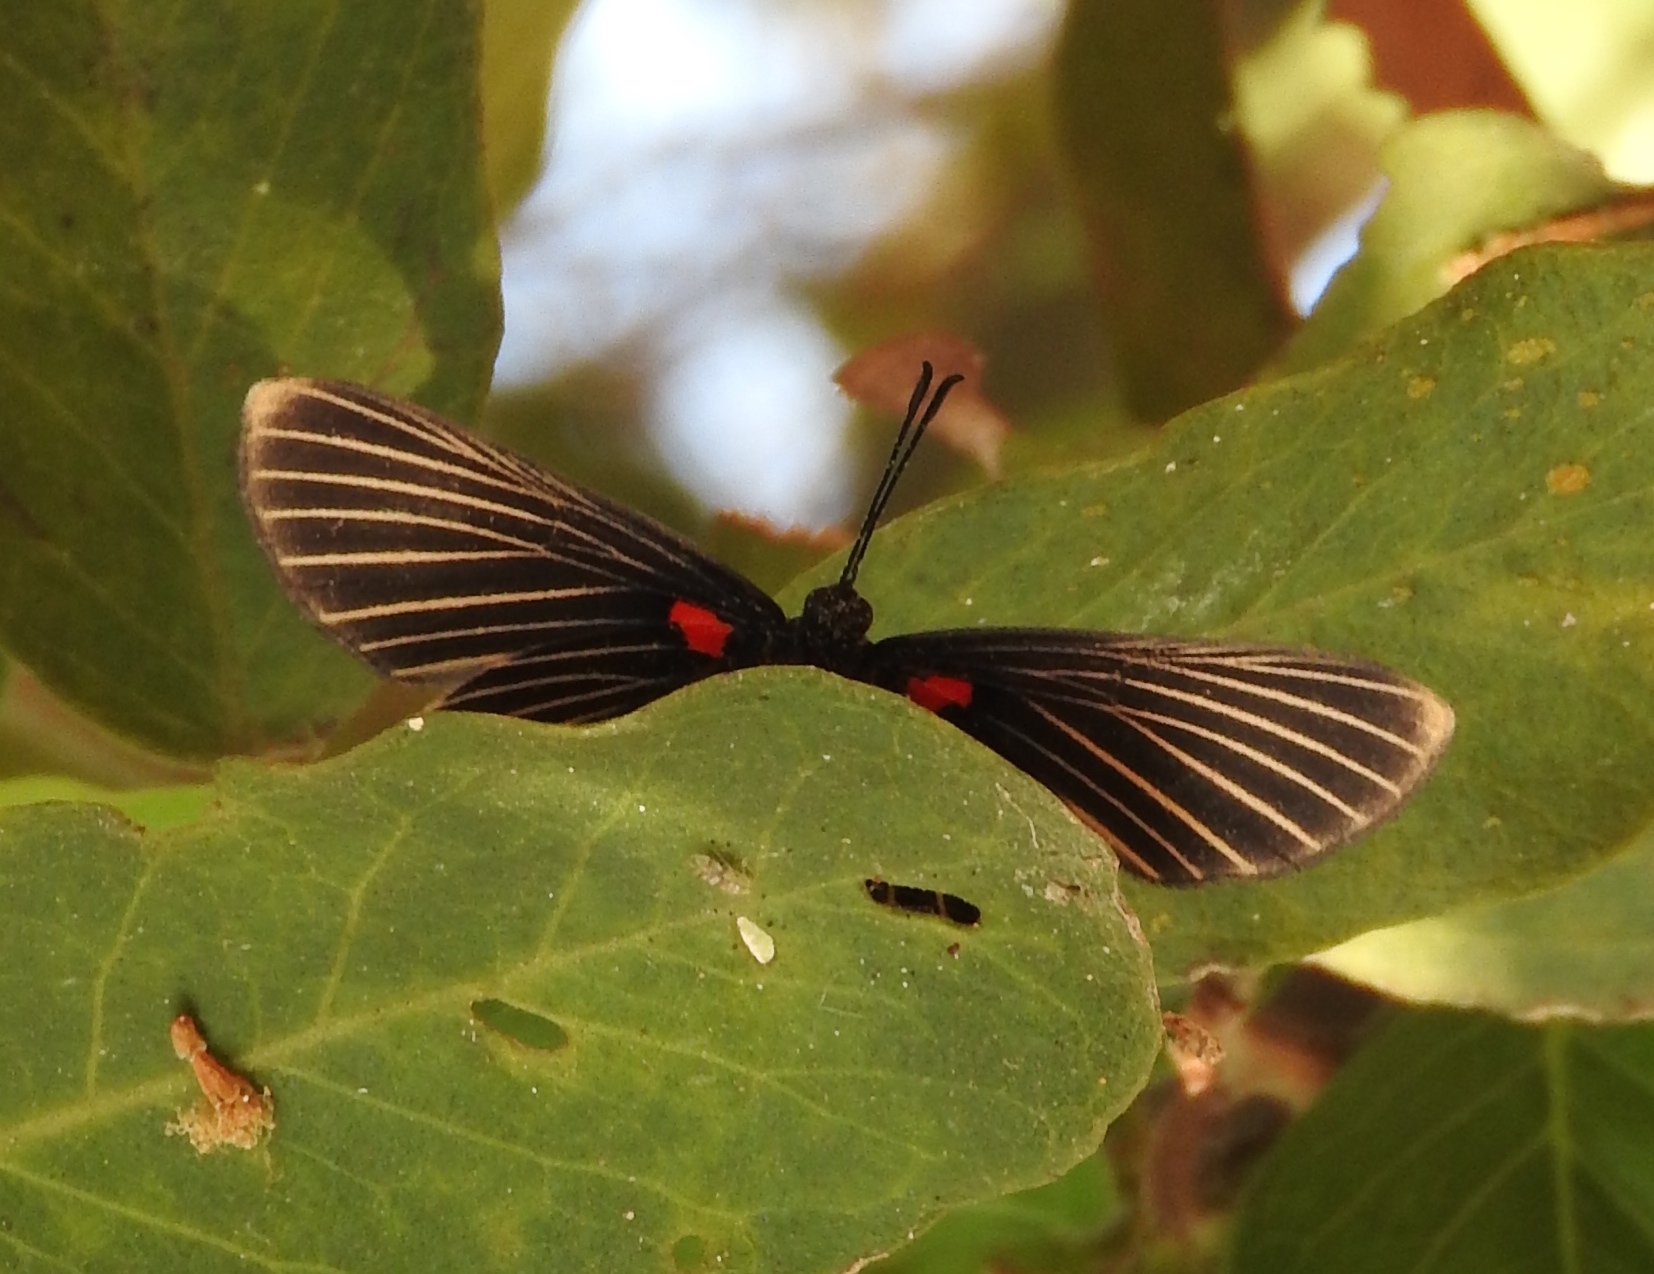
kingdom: Animalia
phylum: Arthropoda
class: Insecta
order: Lepidoptera
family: Lycaenidae
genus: Melanis
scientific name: Melanis
